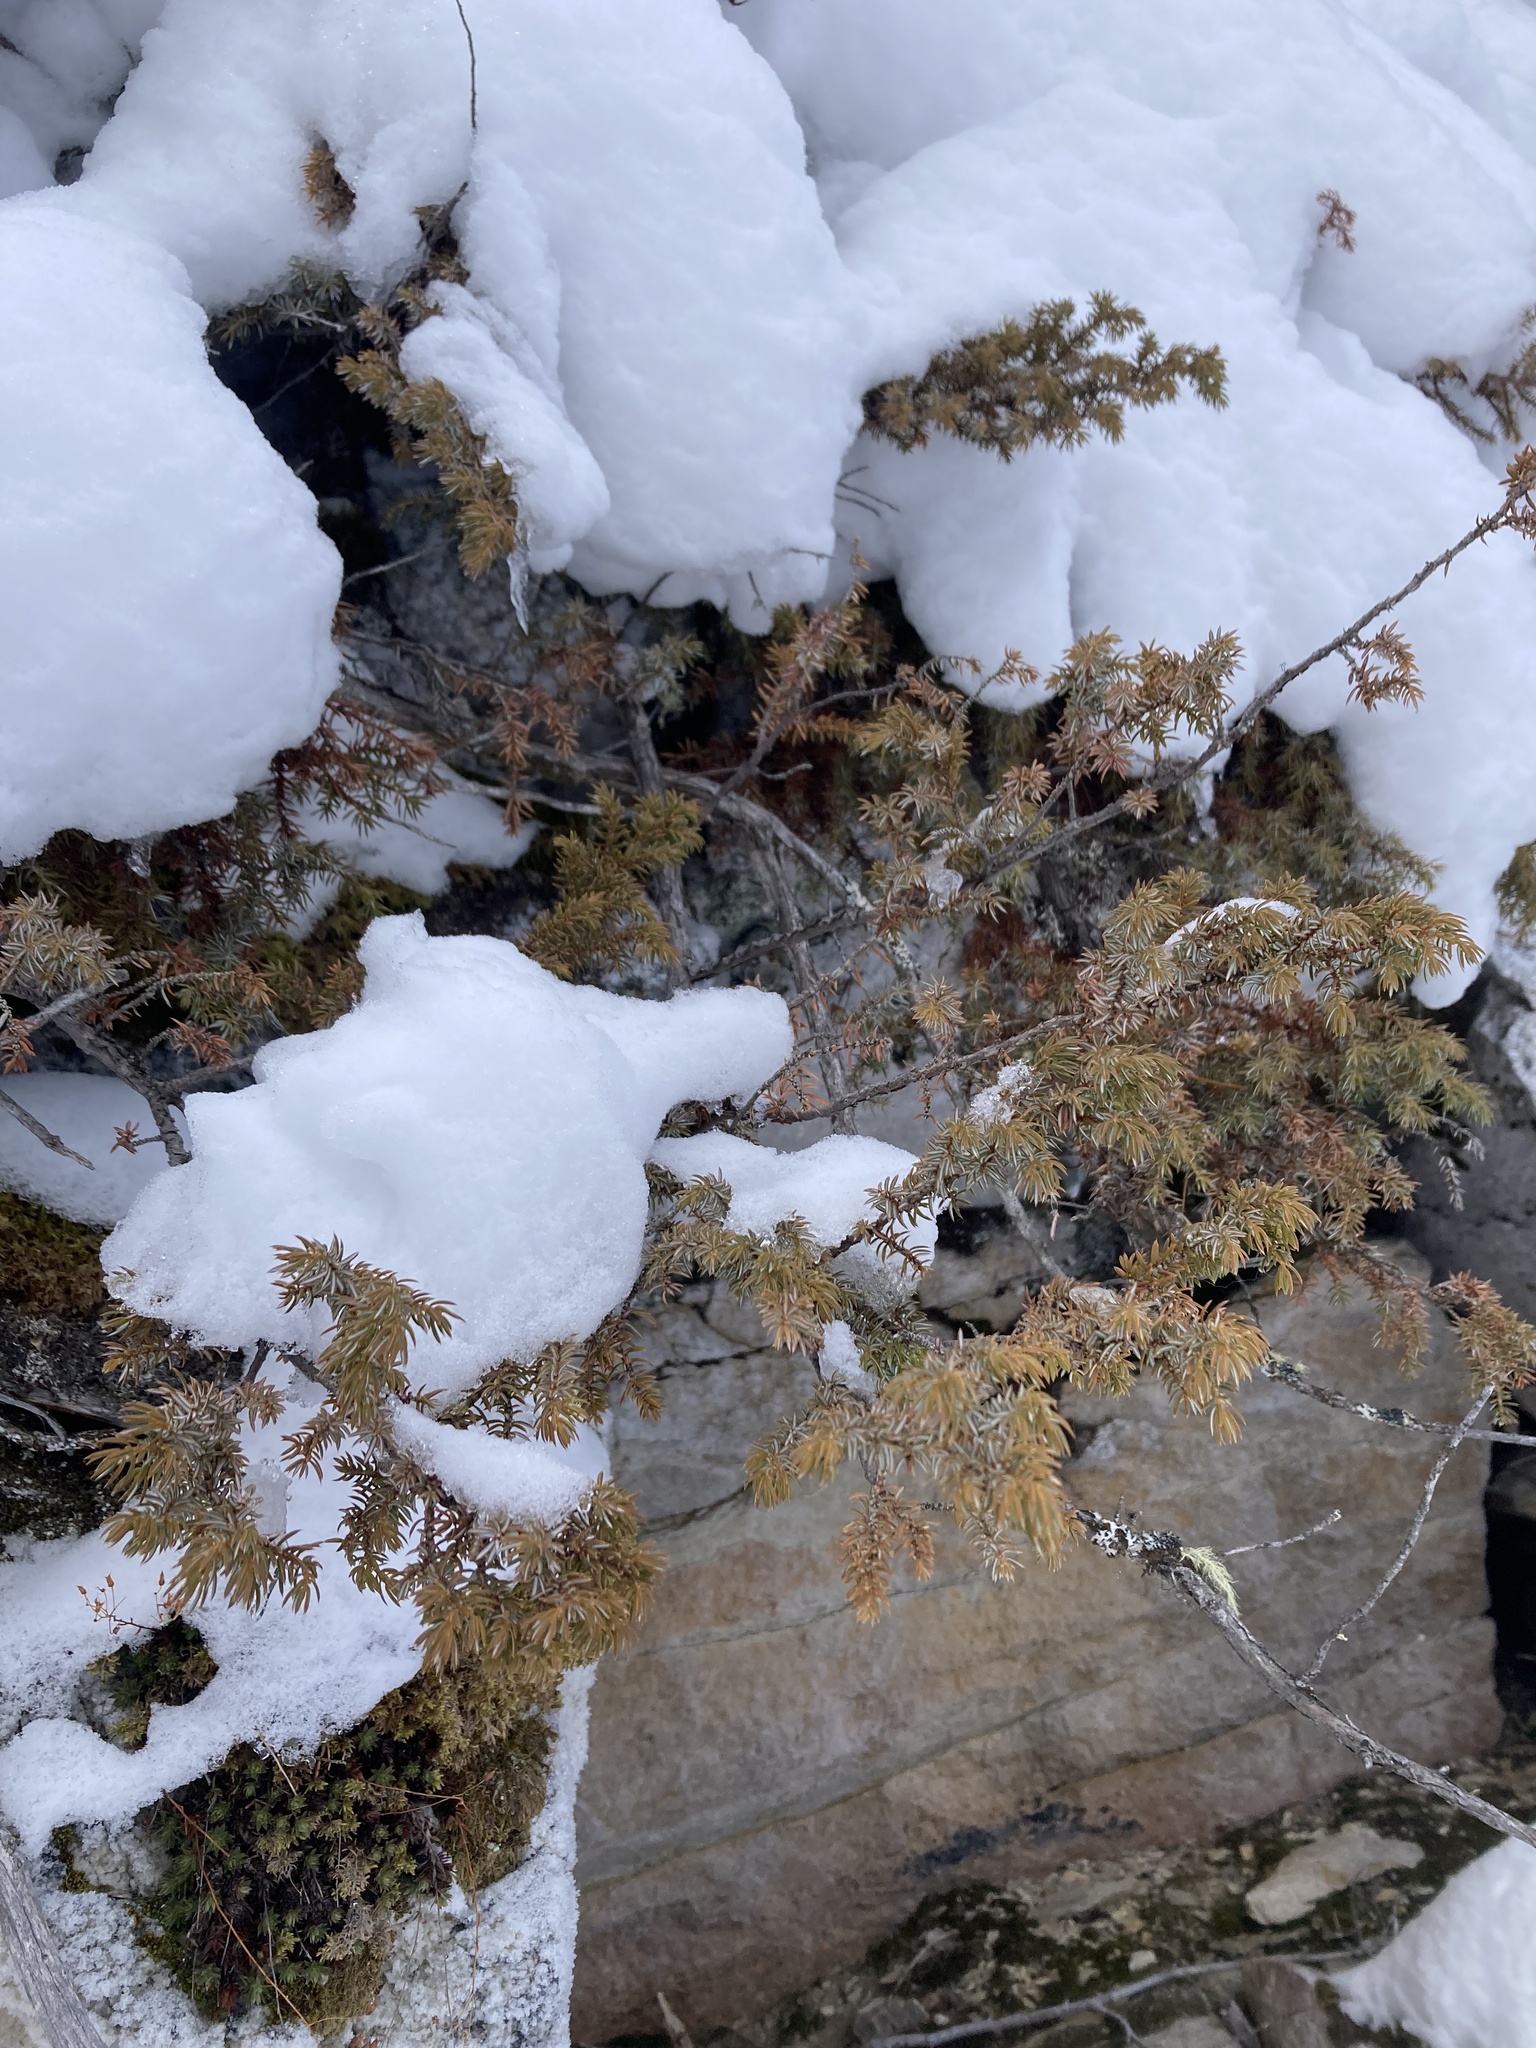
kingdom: Plantae
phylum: Tracheophyta
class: Pinopsida
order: Pinales
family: Cupressaceae
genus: Juniperus
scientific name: Juniperus communis
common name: Common juniper
